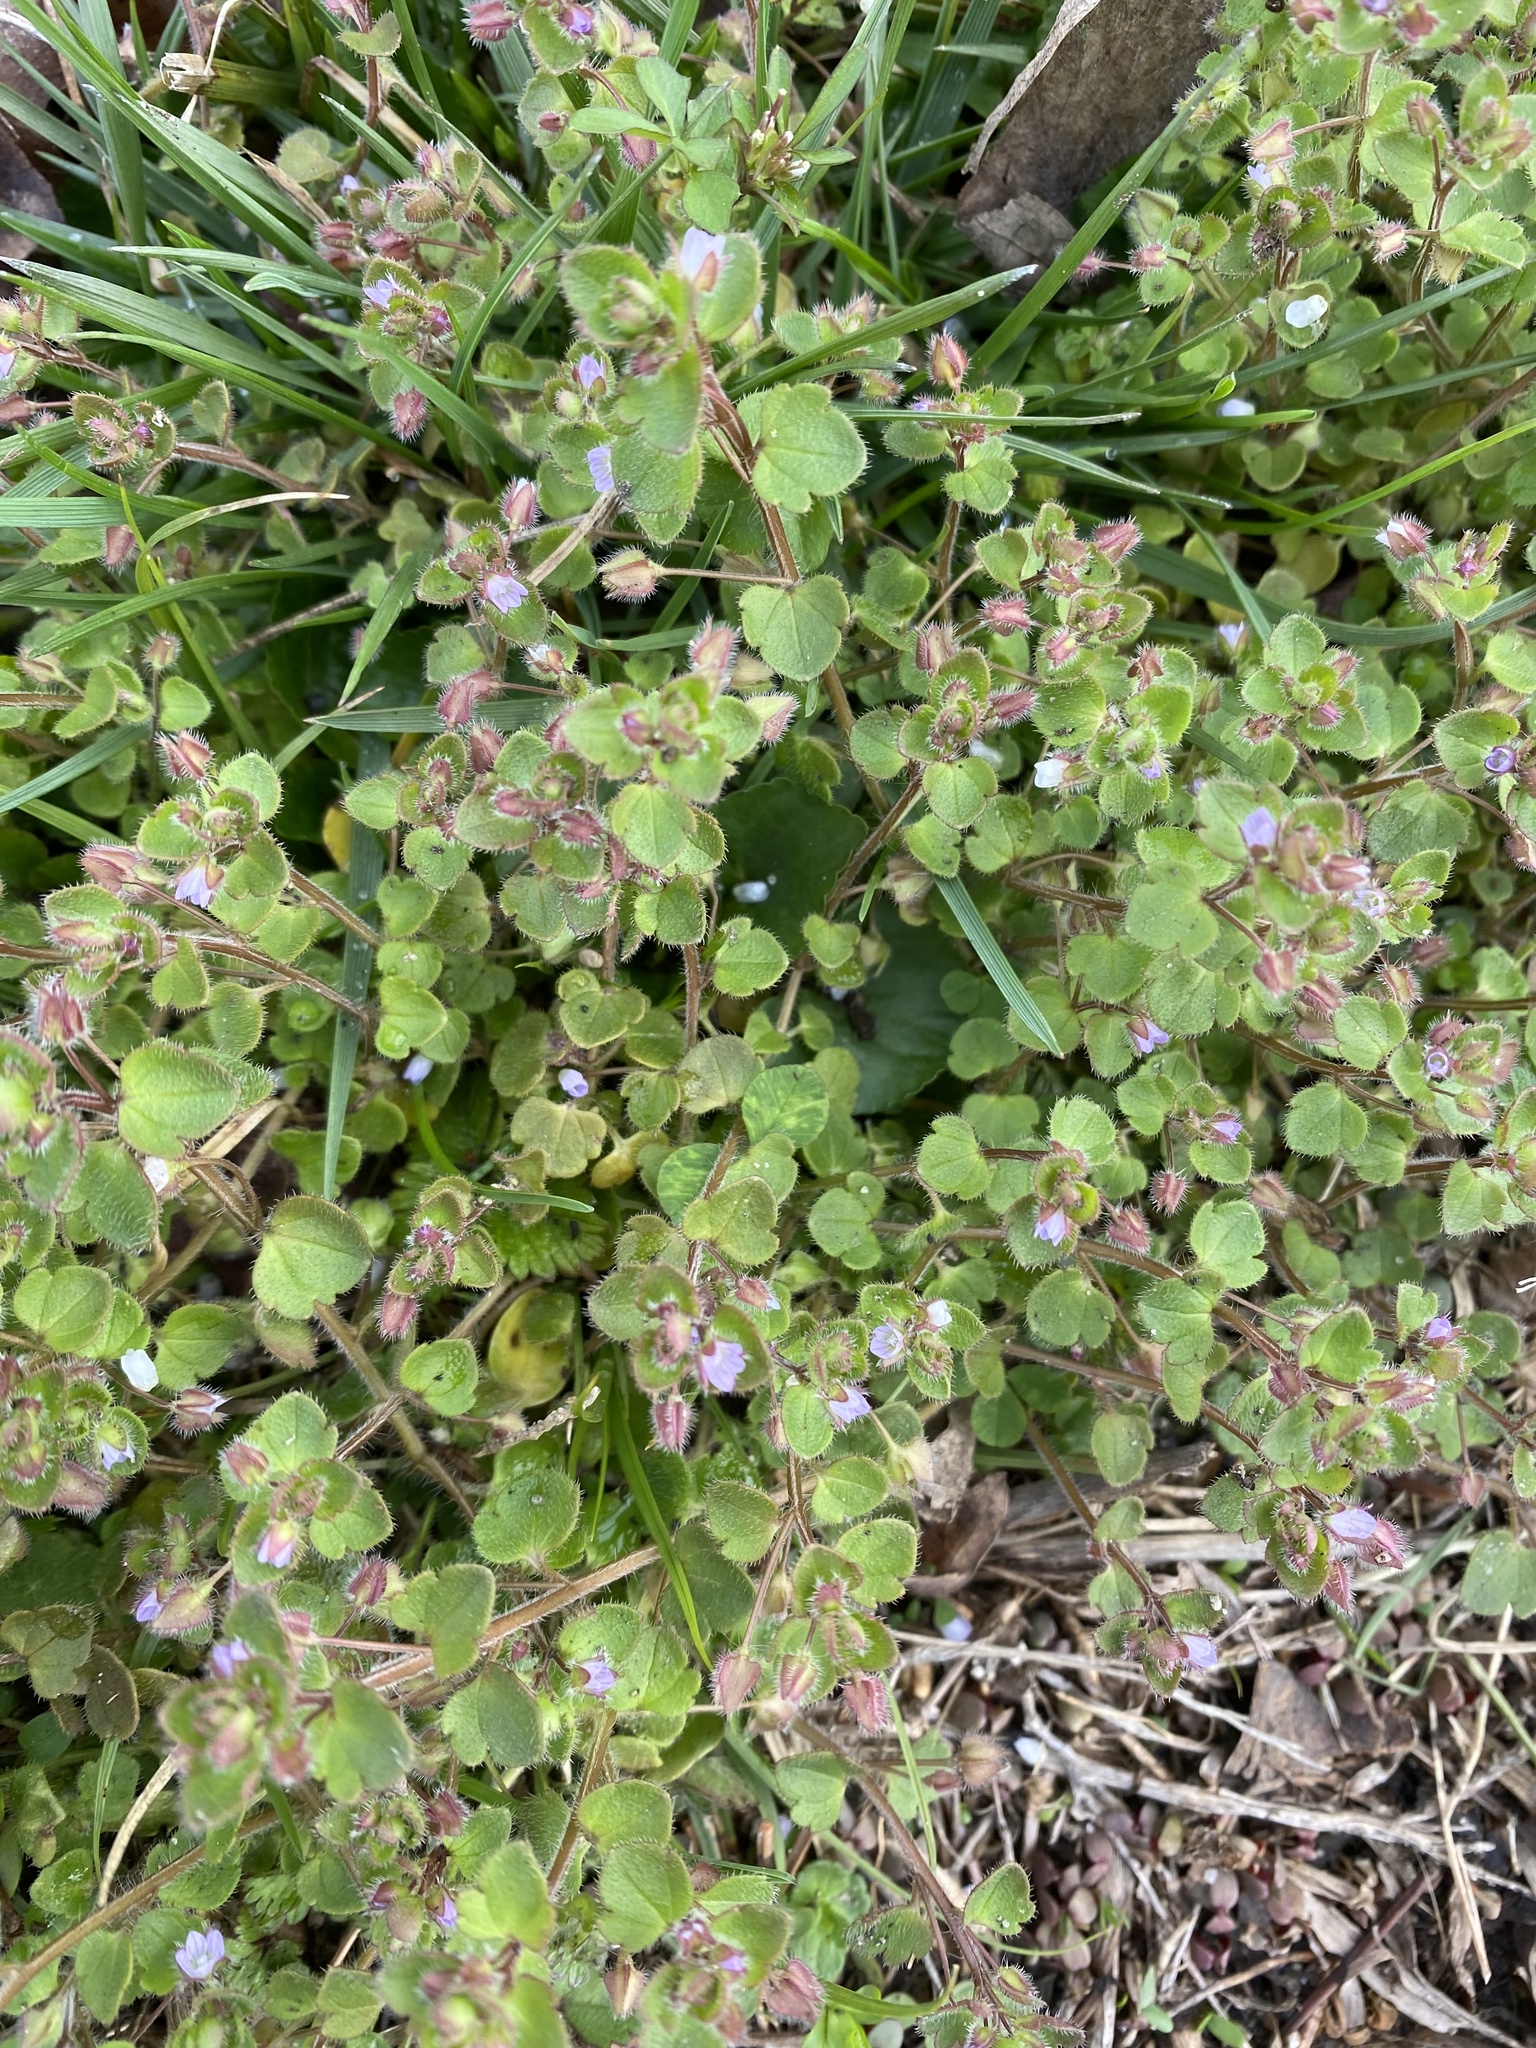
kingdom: Plantae
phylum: Tracheophyta
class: Magnoliopsida
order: Lamiales
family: Plantaginaceae
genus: Veronica
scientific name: Veronica hederifolia
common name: Ivy-leaved speedwell
